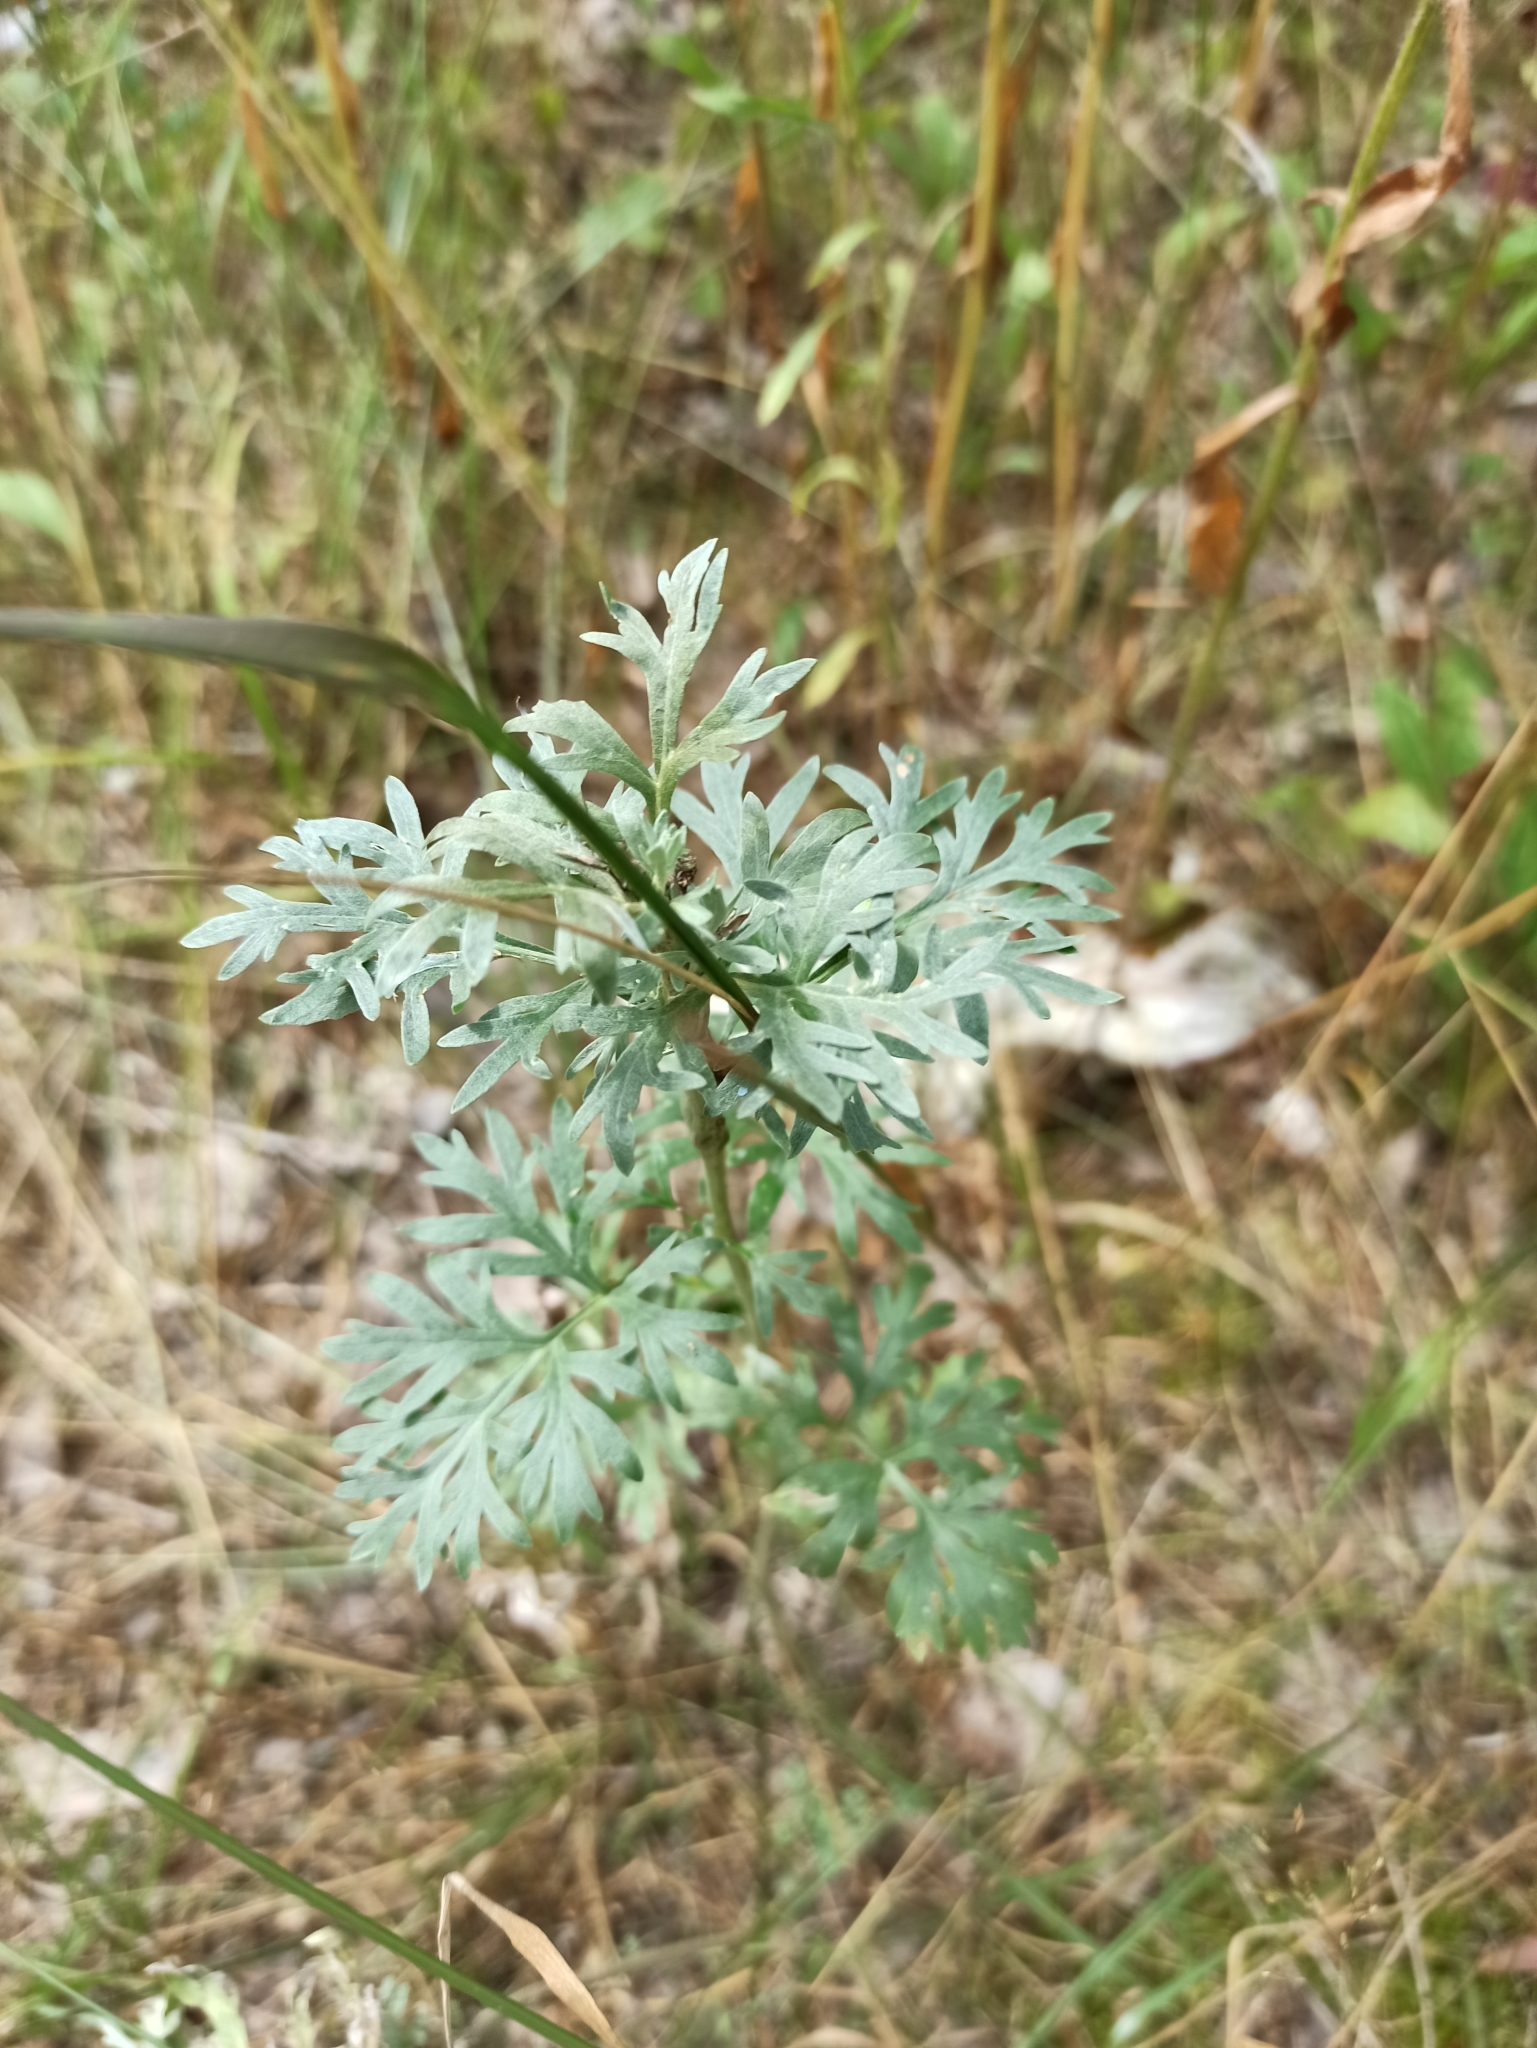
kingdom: Plantae
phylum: Tracheophyta
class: Magnoliopsida
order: Asterales
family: Asteraceae
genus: Artemisia
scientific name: Artemisia absinthium
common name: Wormwood
